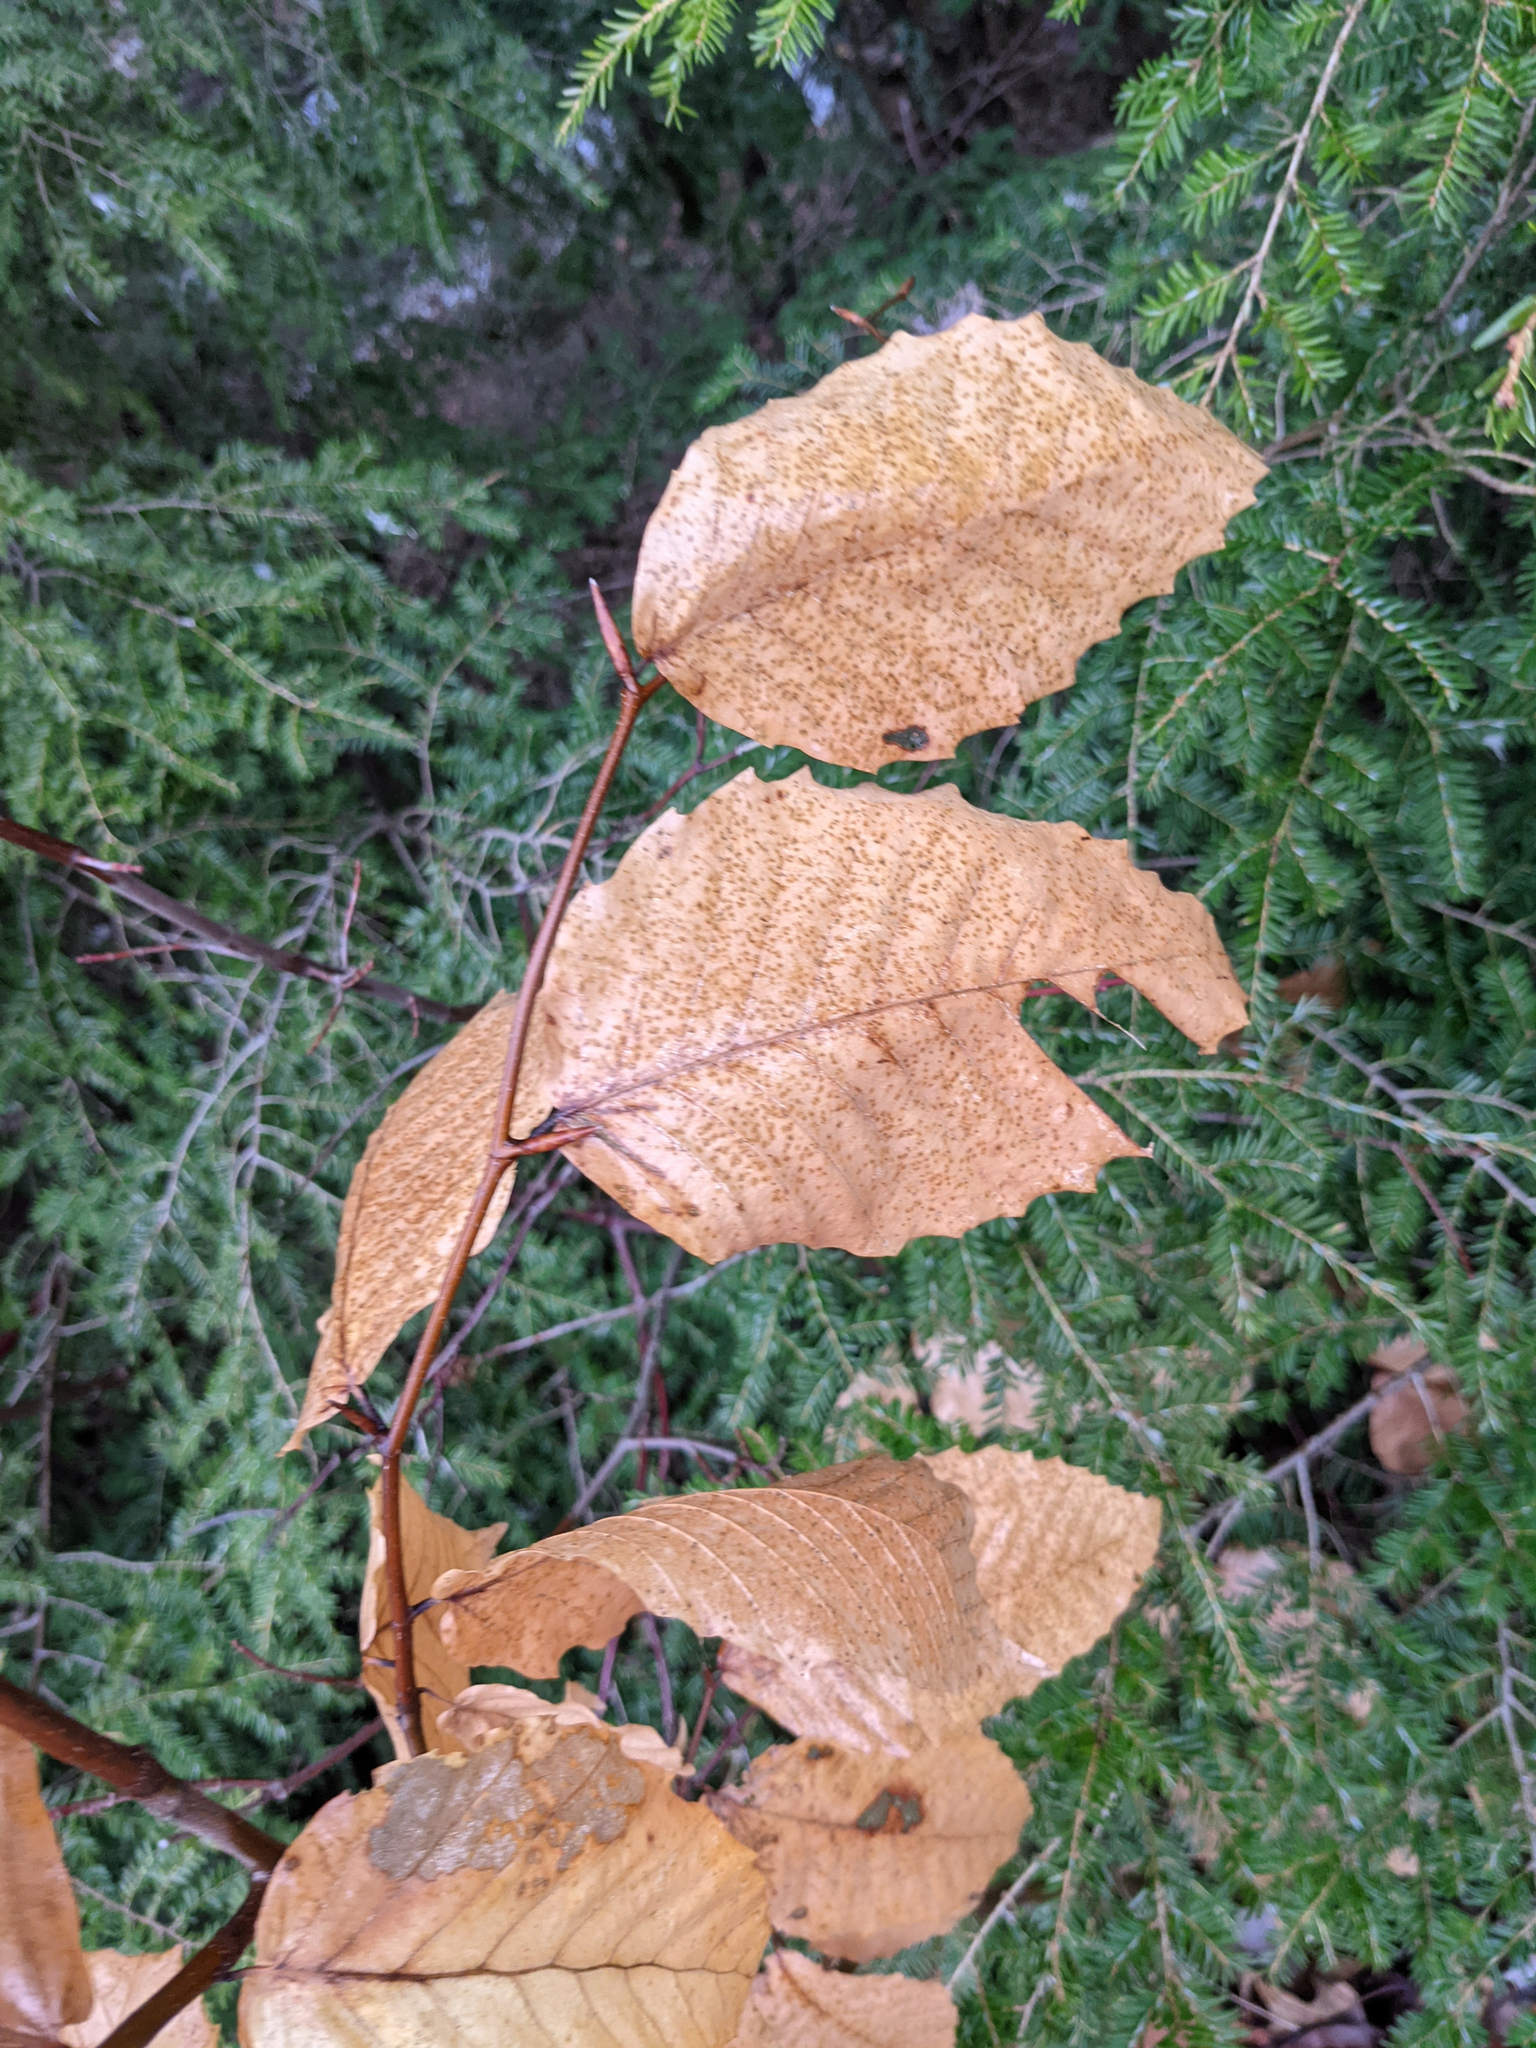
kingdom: Plantae
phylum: Tracheophyta
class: Magnoliopsida
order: Fagales
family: Fagaceae
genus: Fagus
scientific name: Fagus grandifolia
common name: American beech
